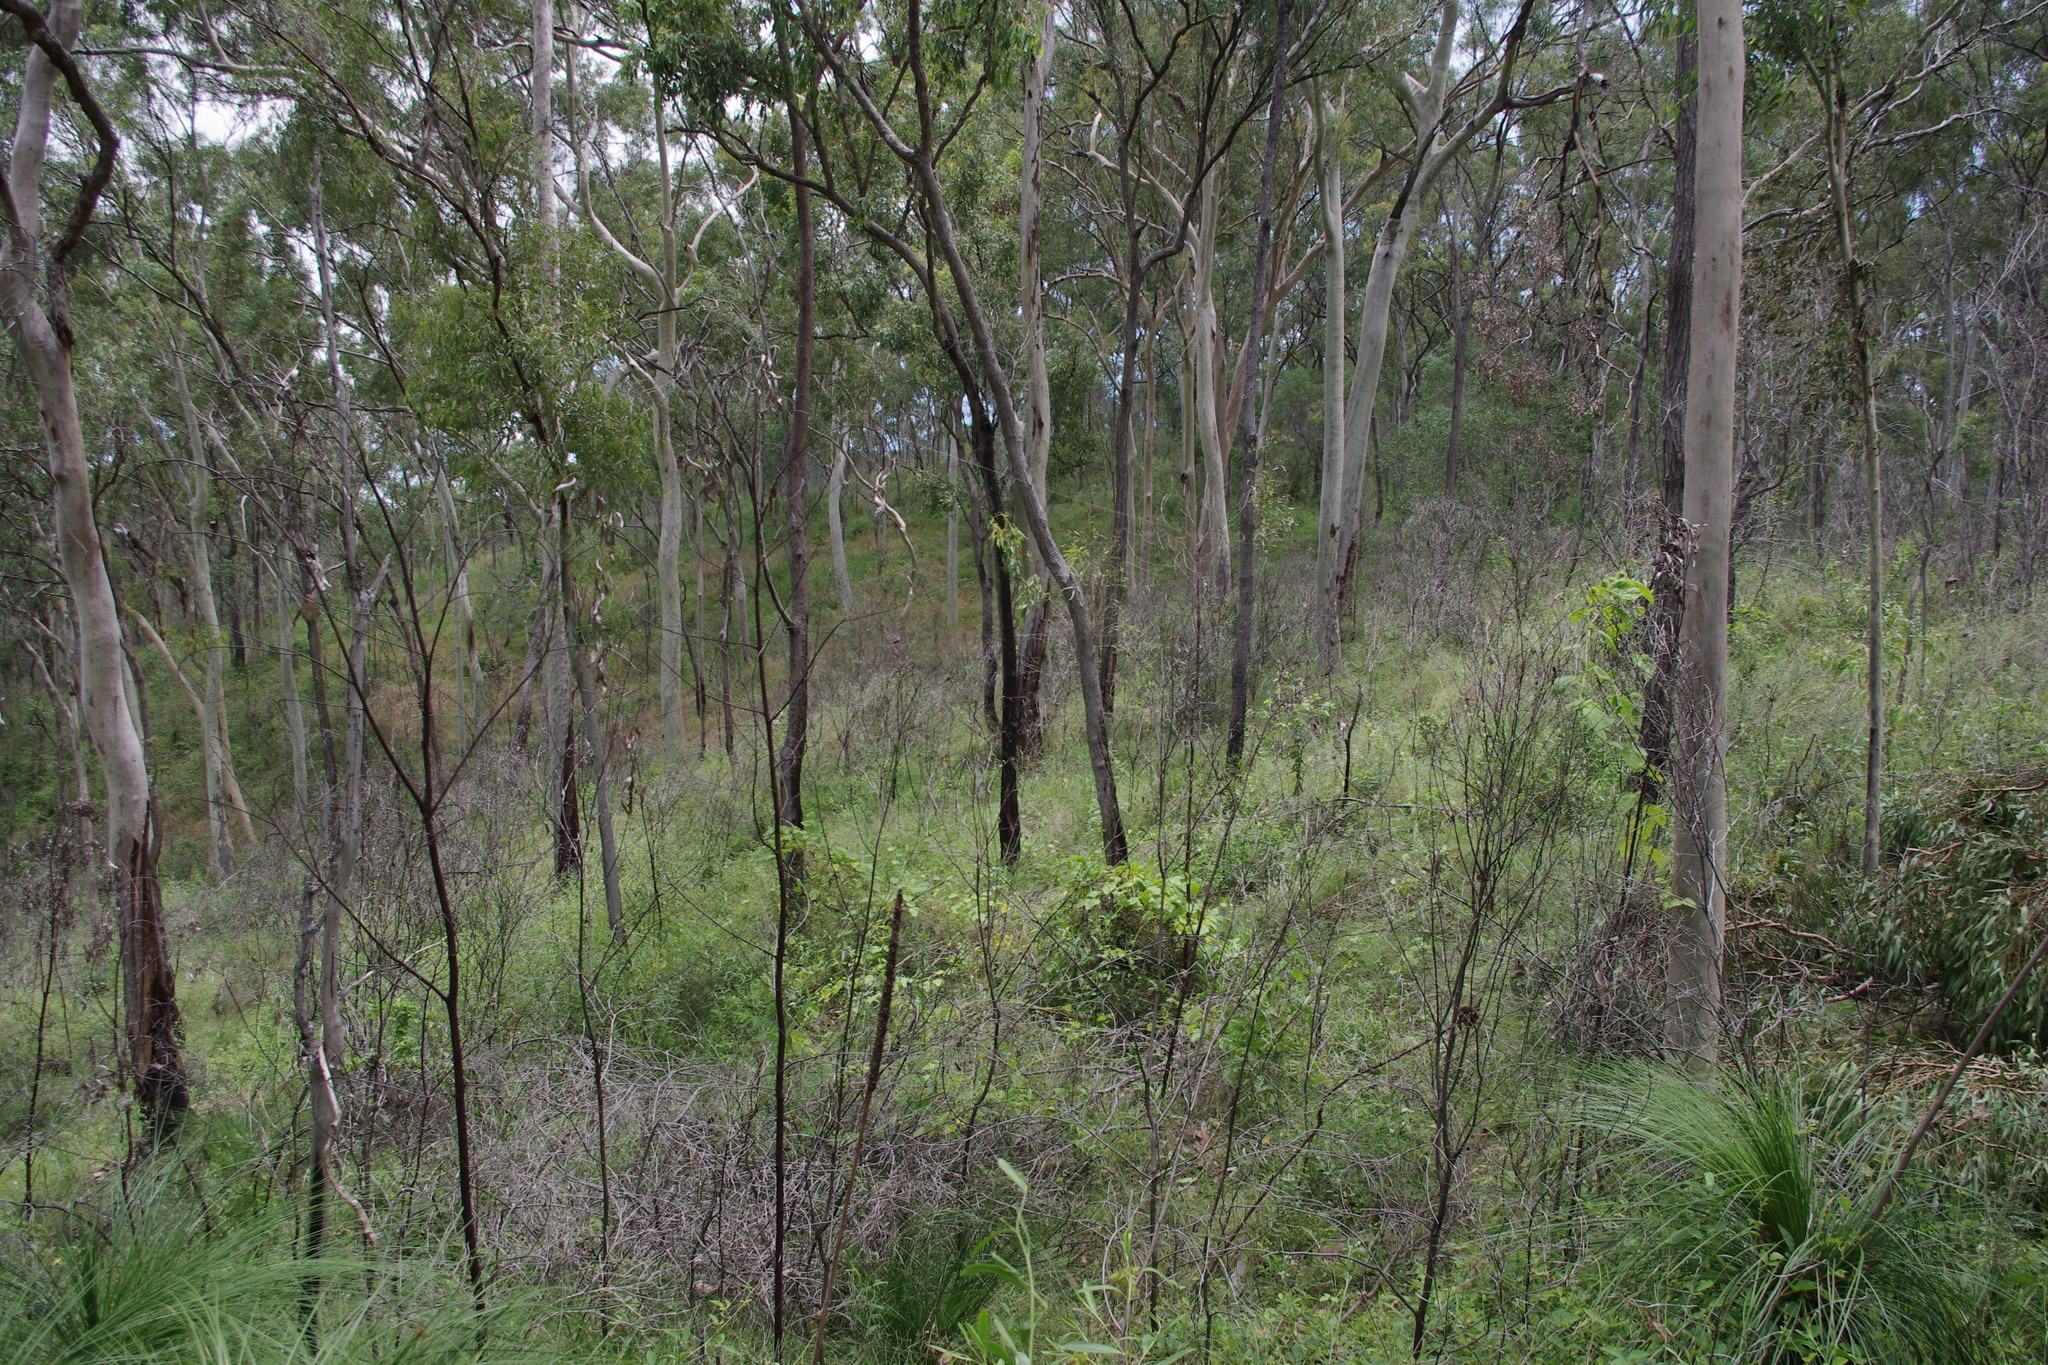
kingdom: Plantae
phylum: Tracheophyta
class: Magnoliopsida
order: Myrtales
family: Myrtaceae
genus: Corymbia
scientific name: Corymbia citriodora
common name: Lemonscented gum
